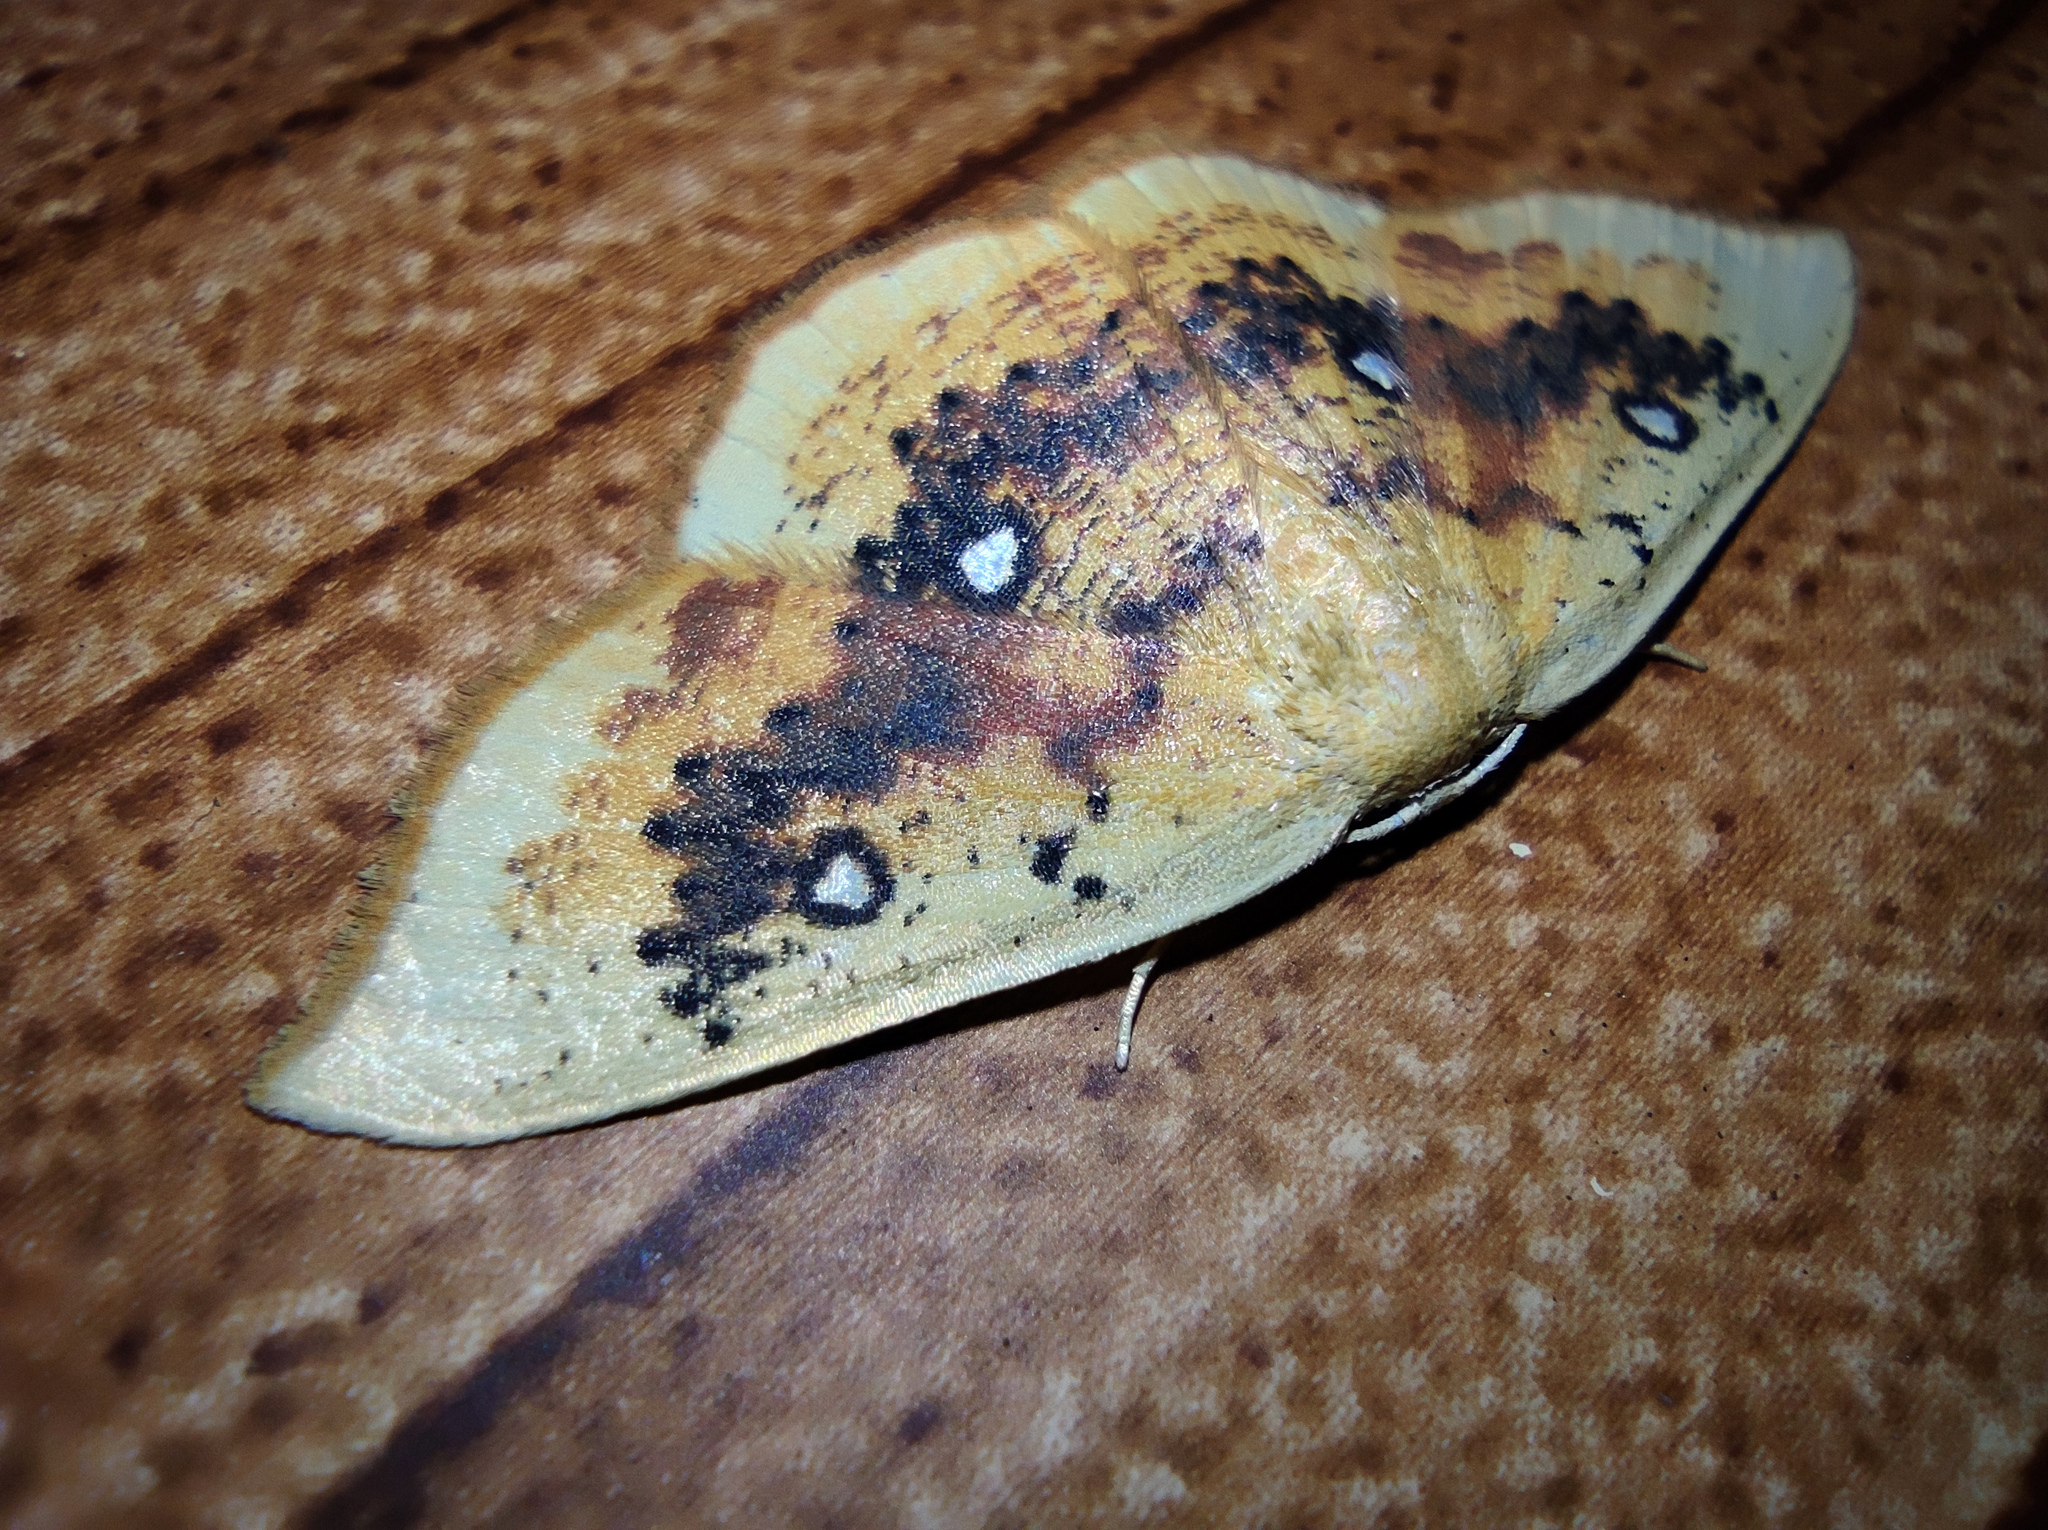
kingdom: Animalia
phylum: Arthropoda
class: Insecta
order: Lepidoptera
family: Geometridae
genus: Cyclophora
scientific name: Cyclophora albiocellaria
